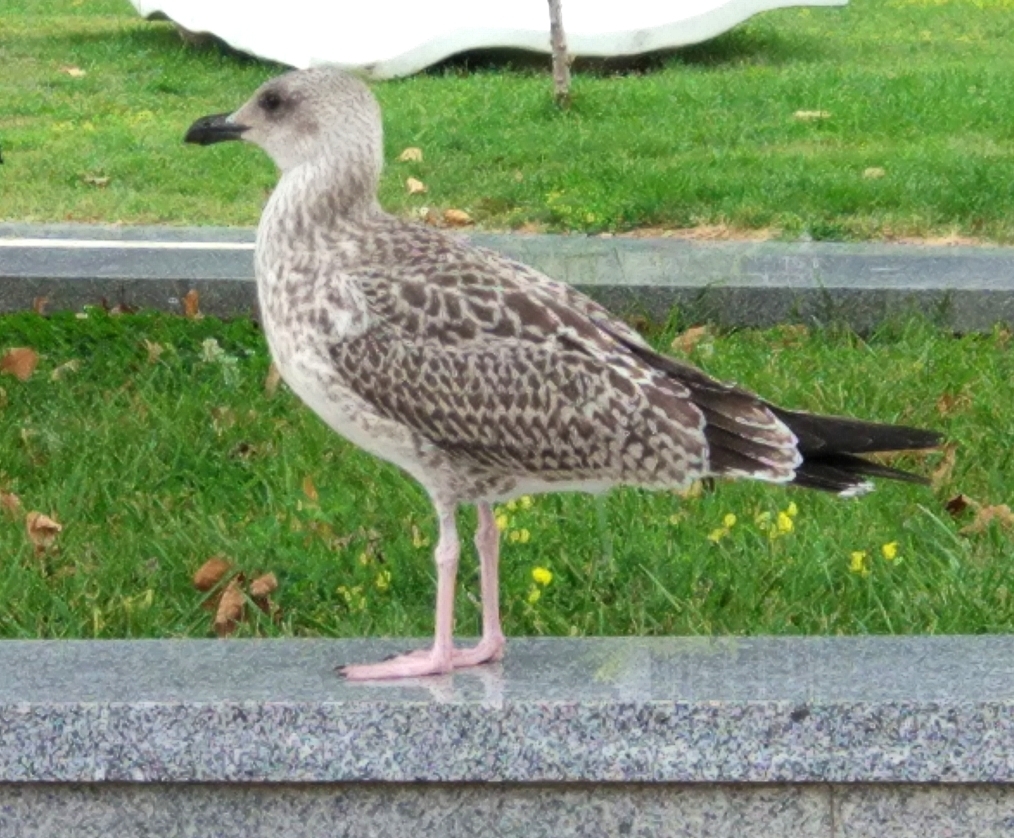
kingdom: Animalia
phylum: Chordata
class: Aves
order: Charadriiformes
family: Laridae
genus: Larus
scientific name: Larus michahellis
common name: Yellow-legged gull
